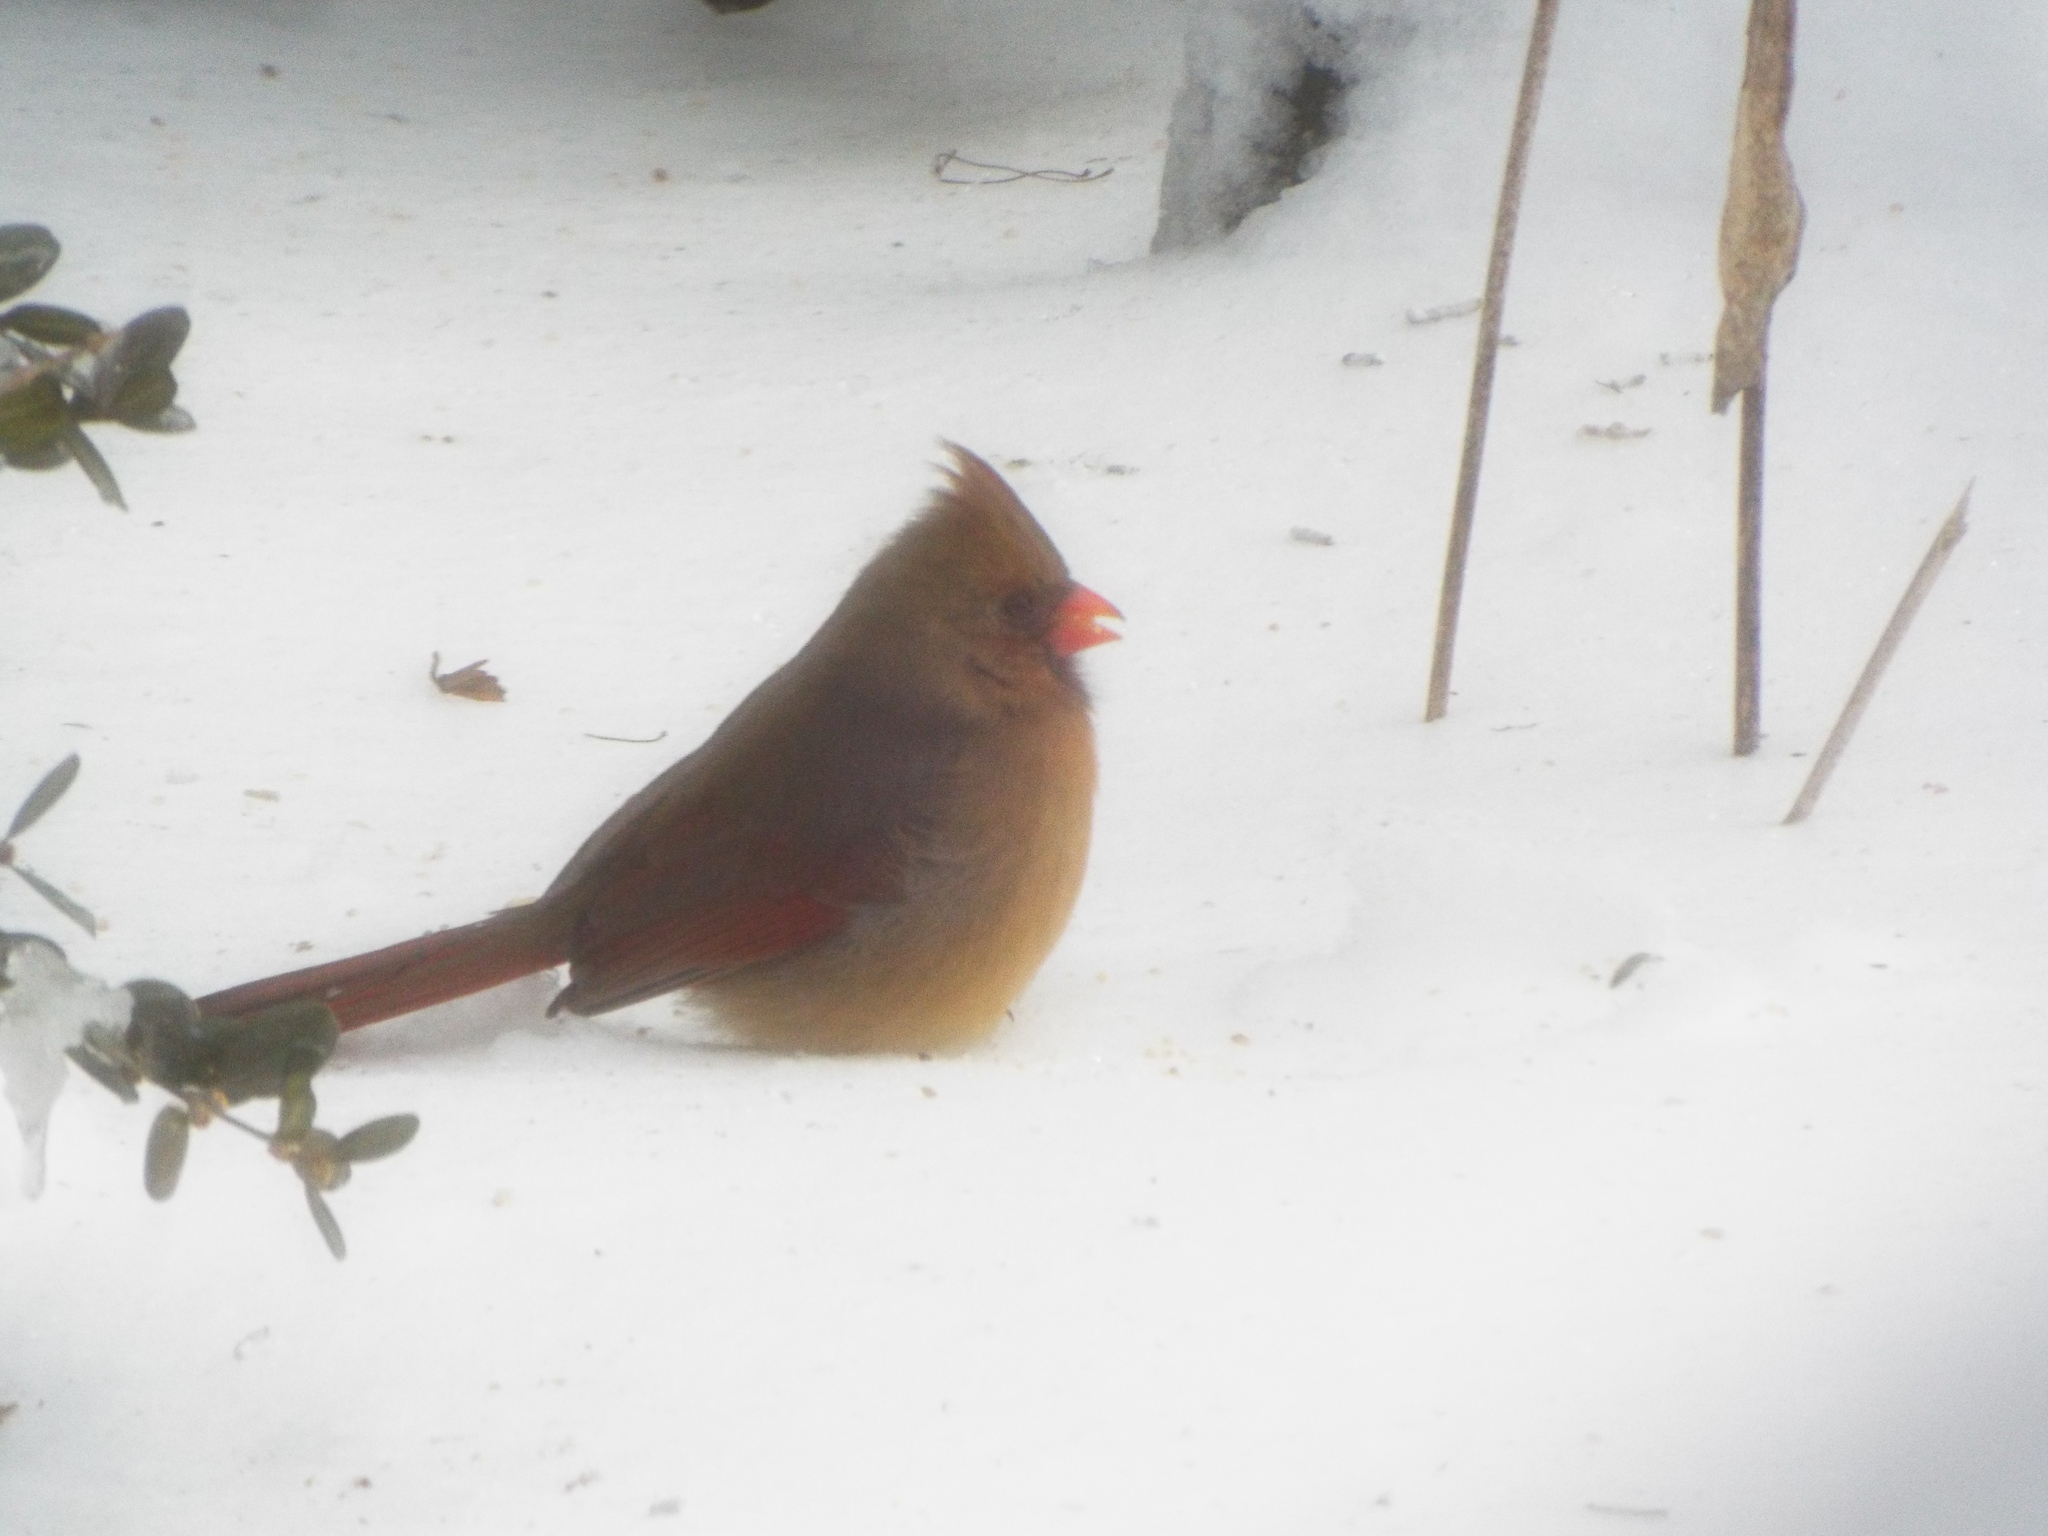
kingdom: Animalia
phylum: Chordata
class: Aves
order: Passeriformes
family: Cardinalidae
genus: Cardinalis
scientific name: Cardinalis cardinalis
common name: Northern cardinal
